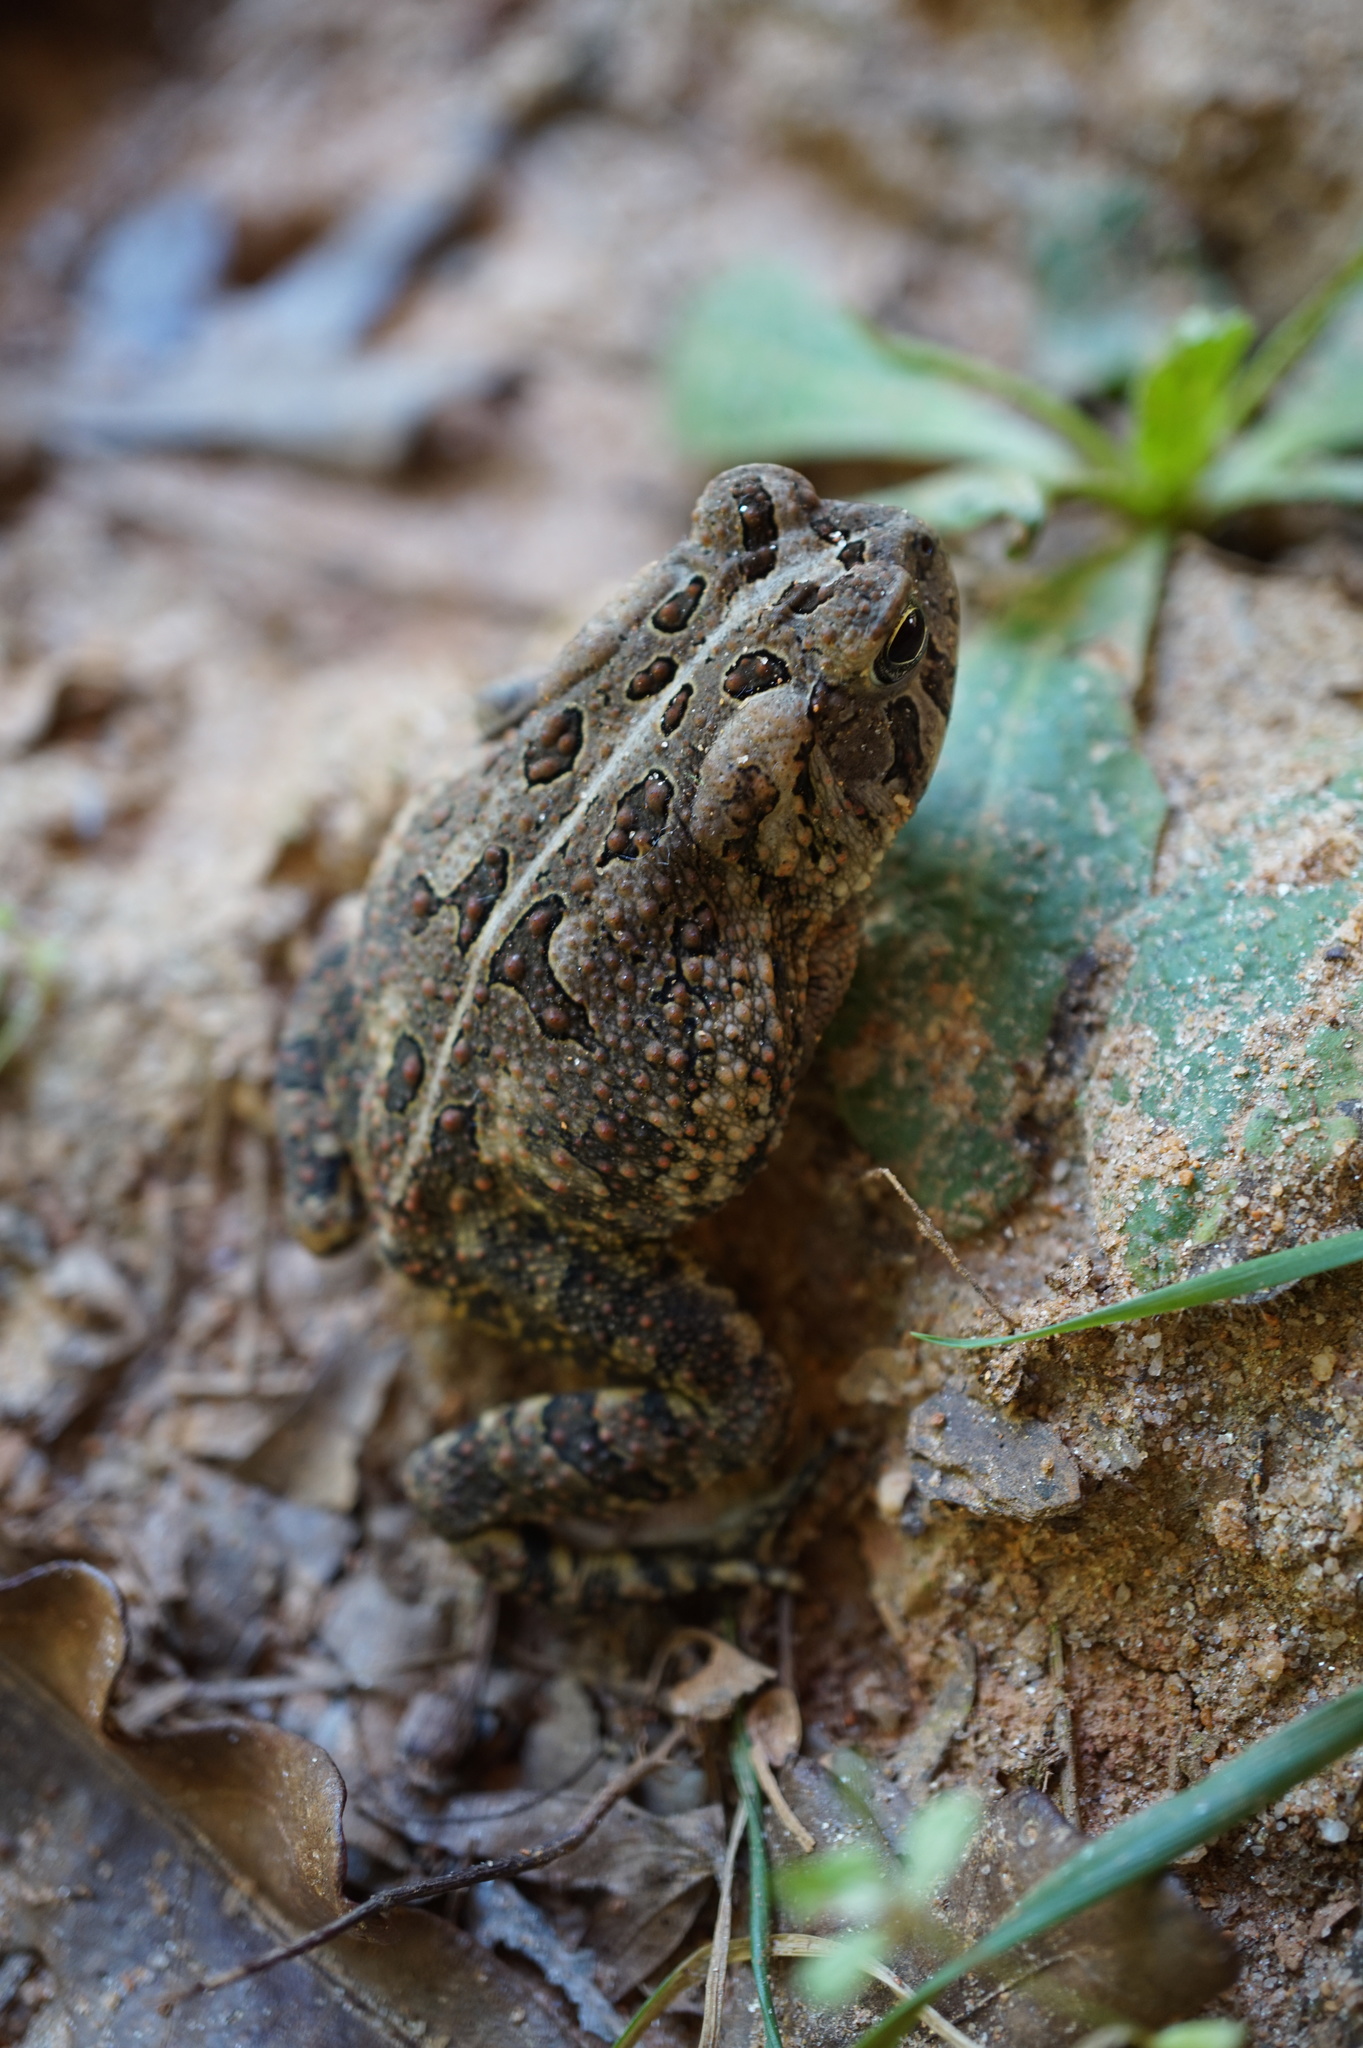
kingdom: Animalia
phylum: Chordata
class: Amphibia
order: Anura
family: Bufonidae
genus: Anaxyrus
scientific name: Anaxyrus fowleri
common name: Fowler's toad
